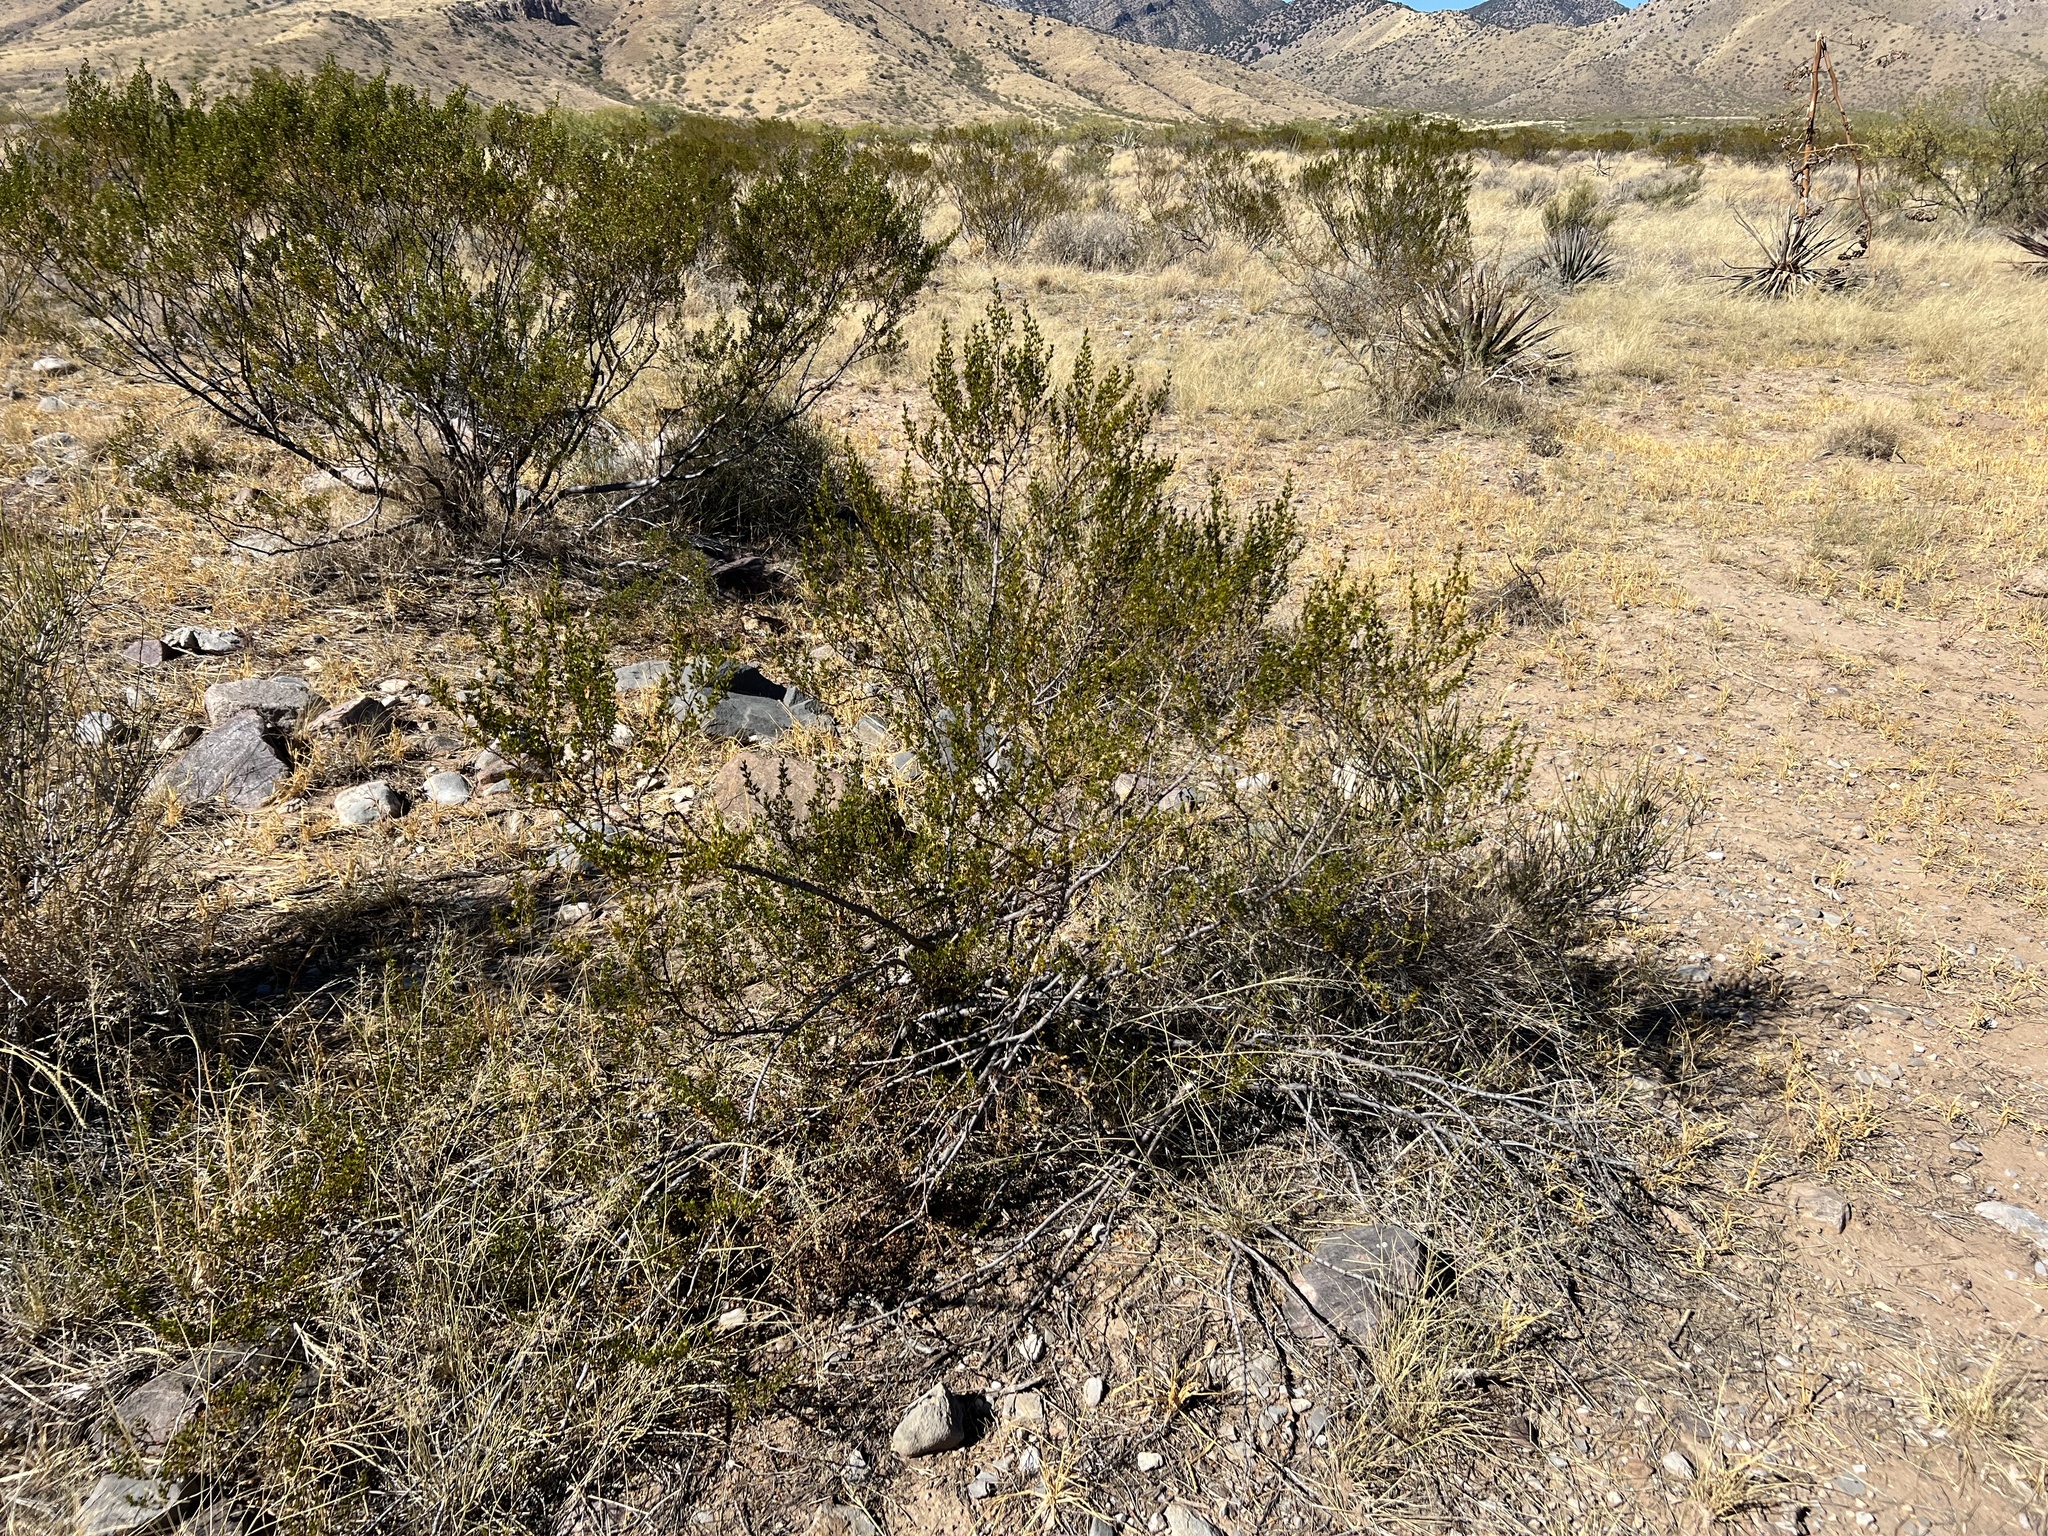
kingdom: Plantae
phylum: Tracheophyta
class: Magnoliopsida
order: Zygophyllales
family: Zygophyllaceae
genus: Larrea
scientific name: Larrea tridentata
